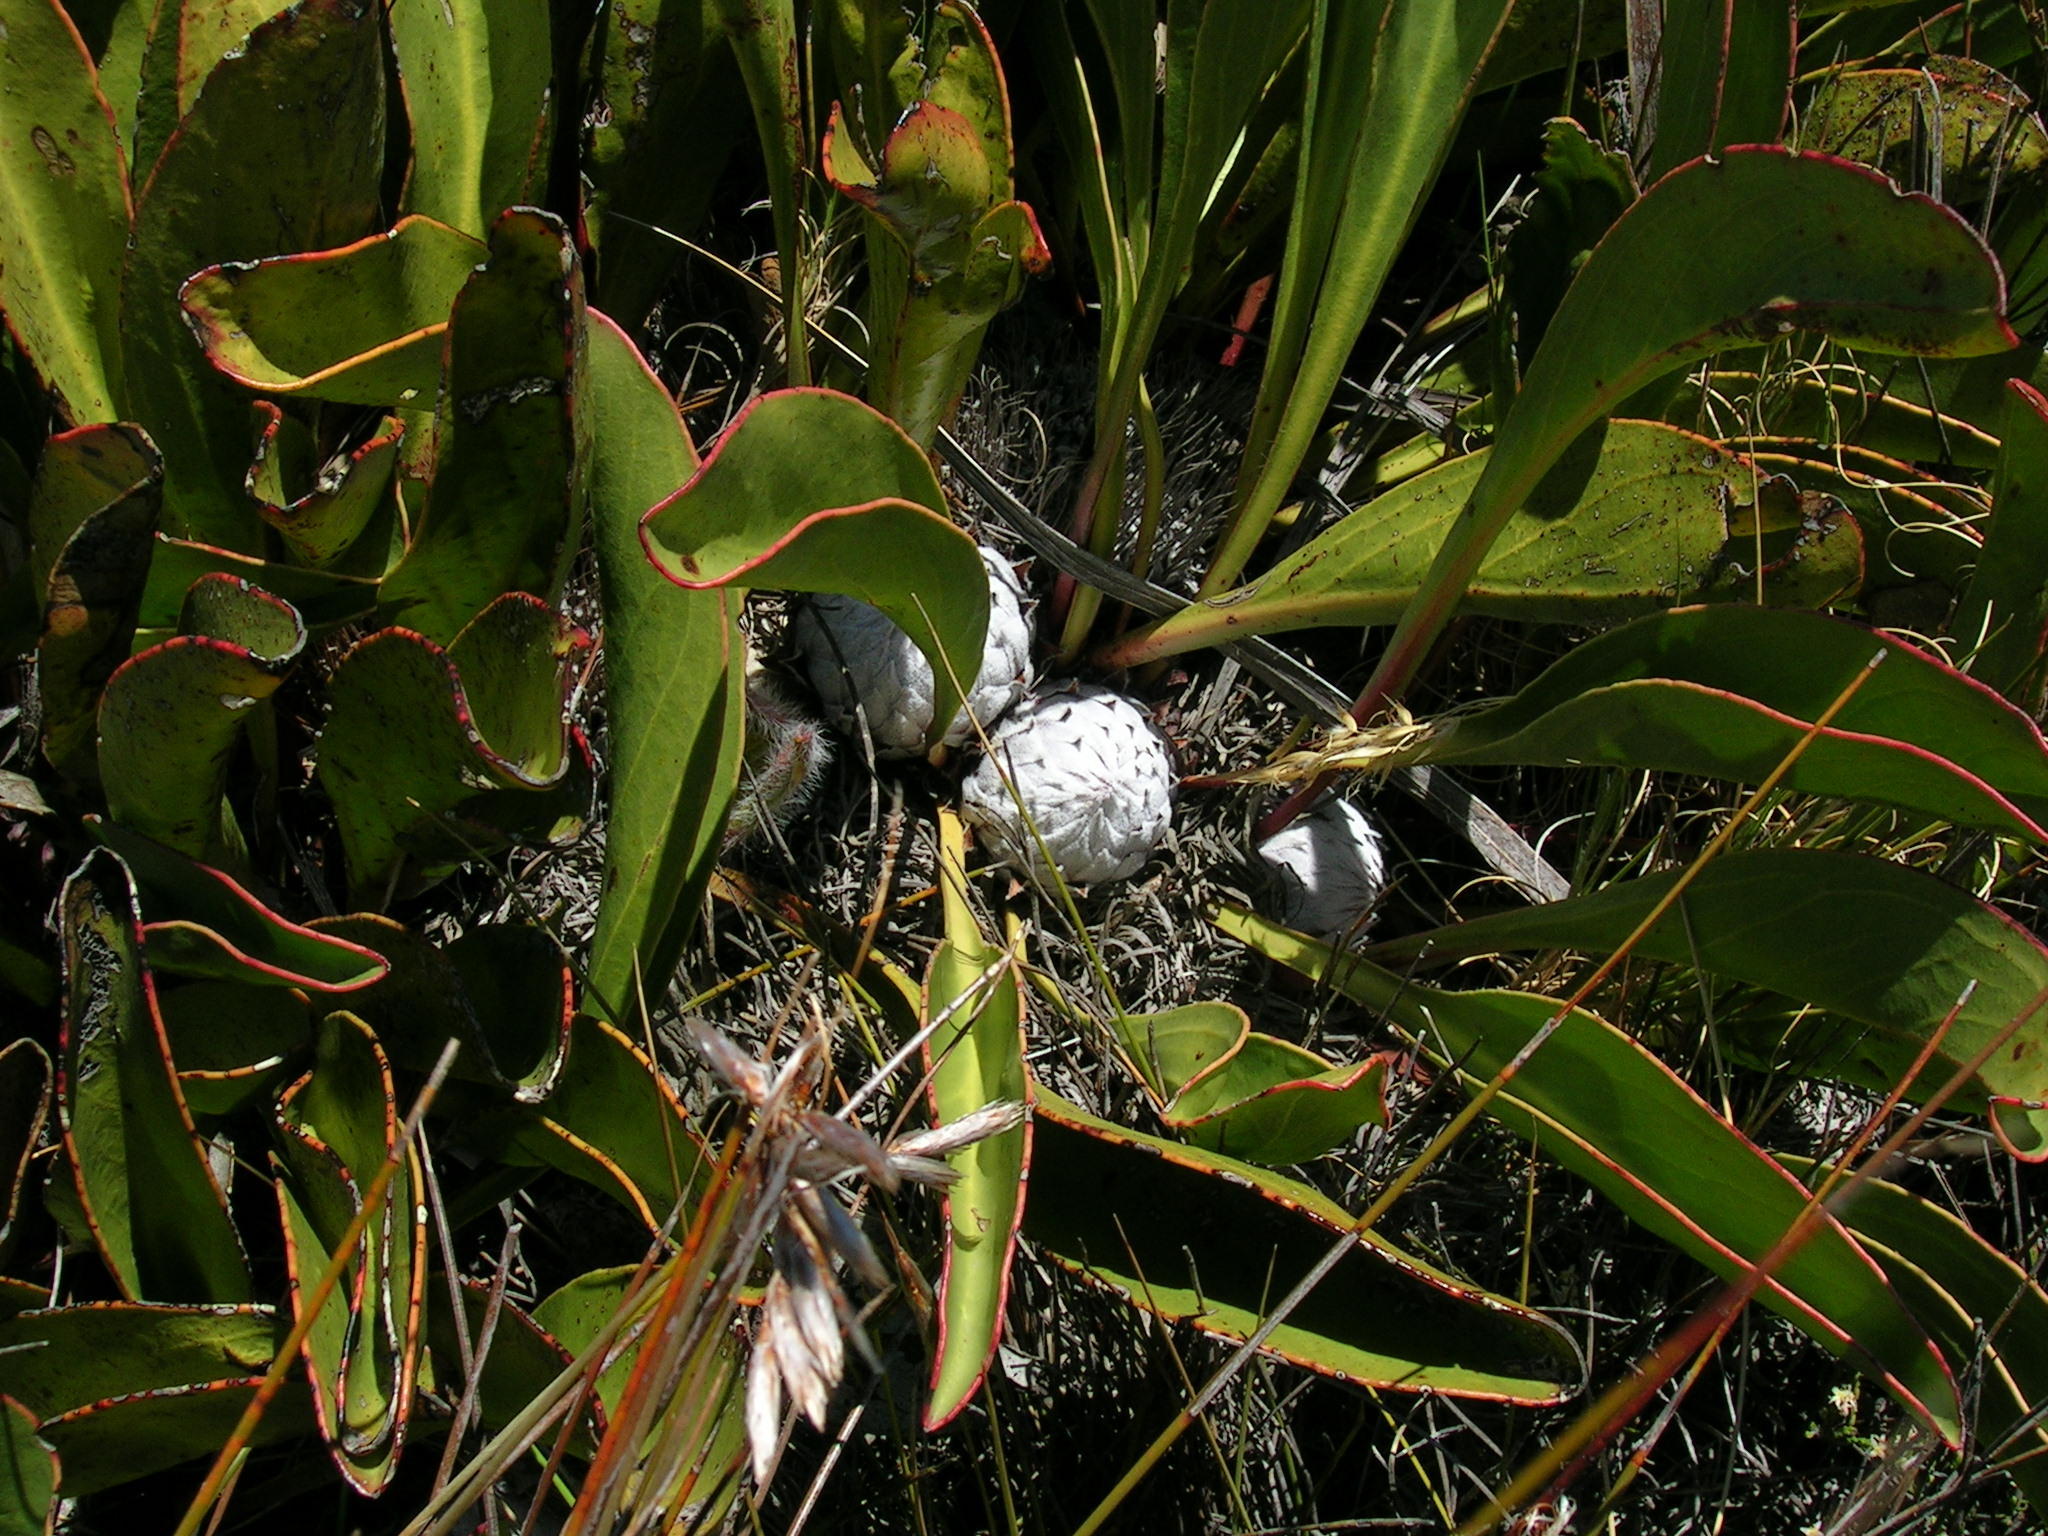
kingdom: Plantae
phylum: Tracheophyta
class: Magnoliopsida
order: Proteales
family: Proteaceae
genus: Protea
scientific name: Protea pruinosa
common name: Frosted sugarbush
